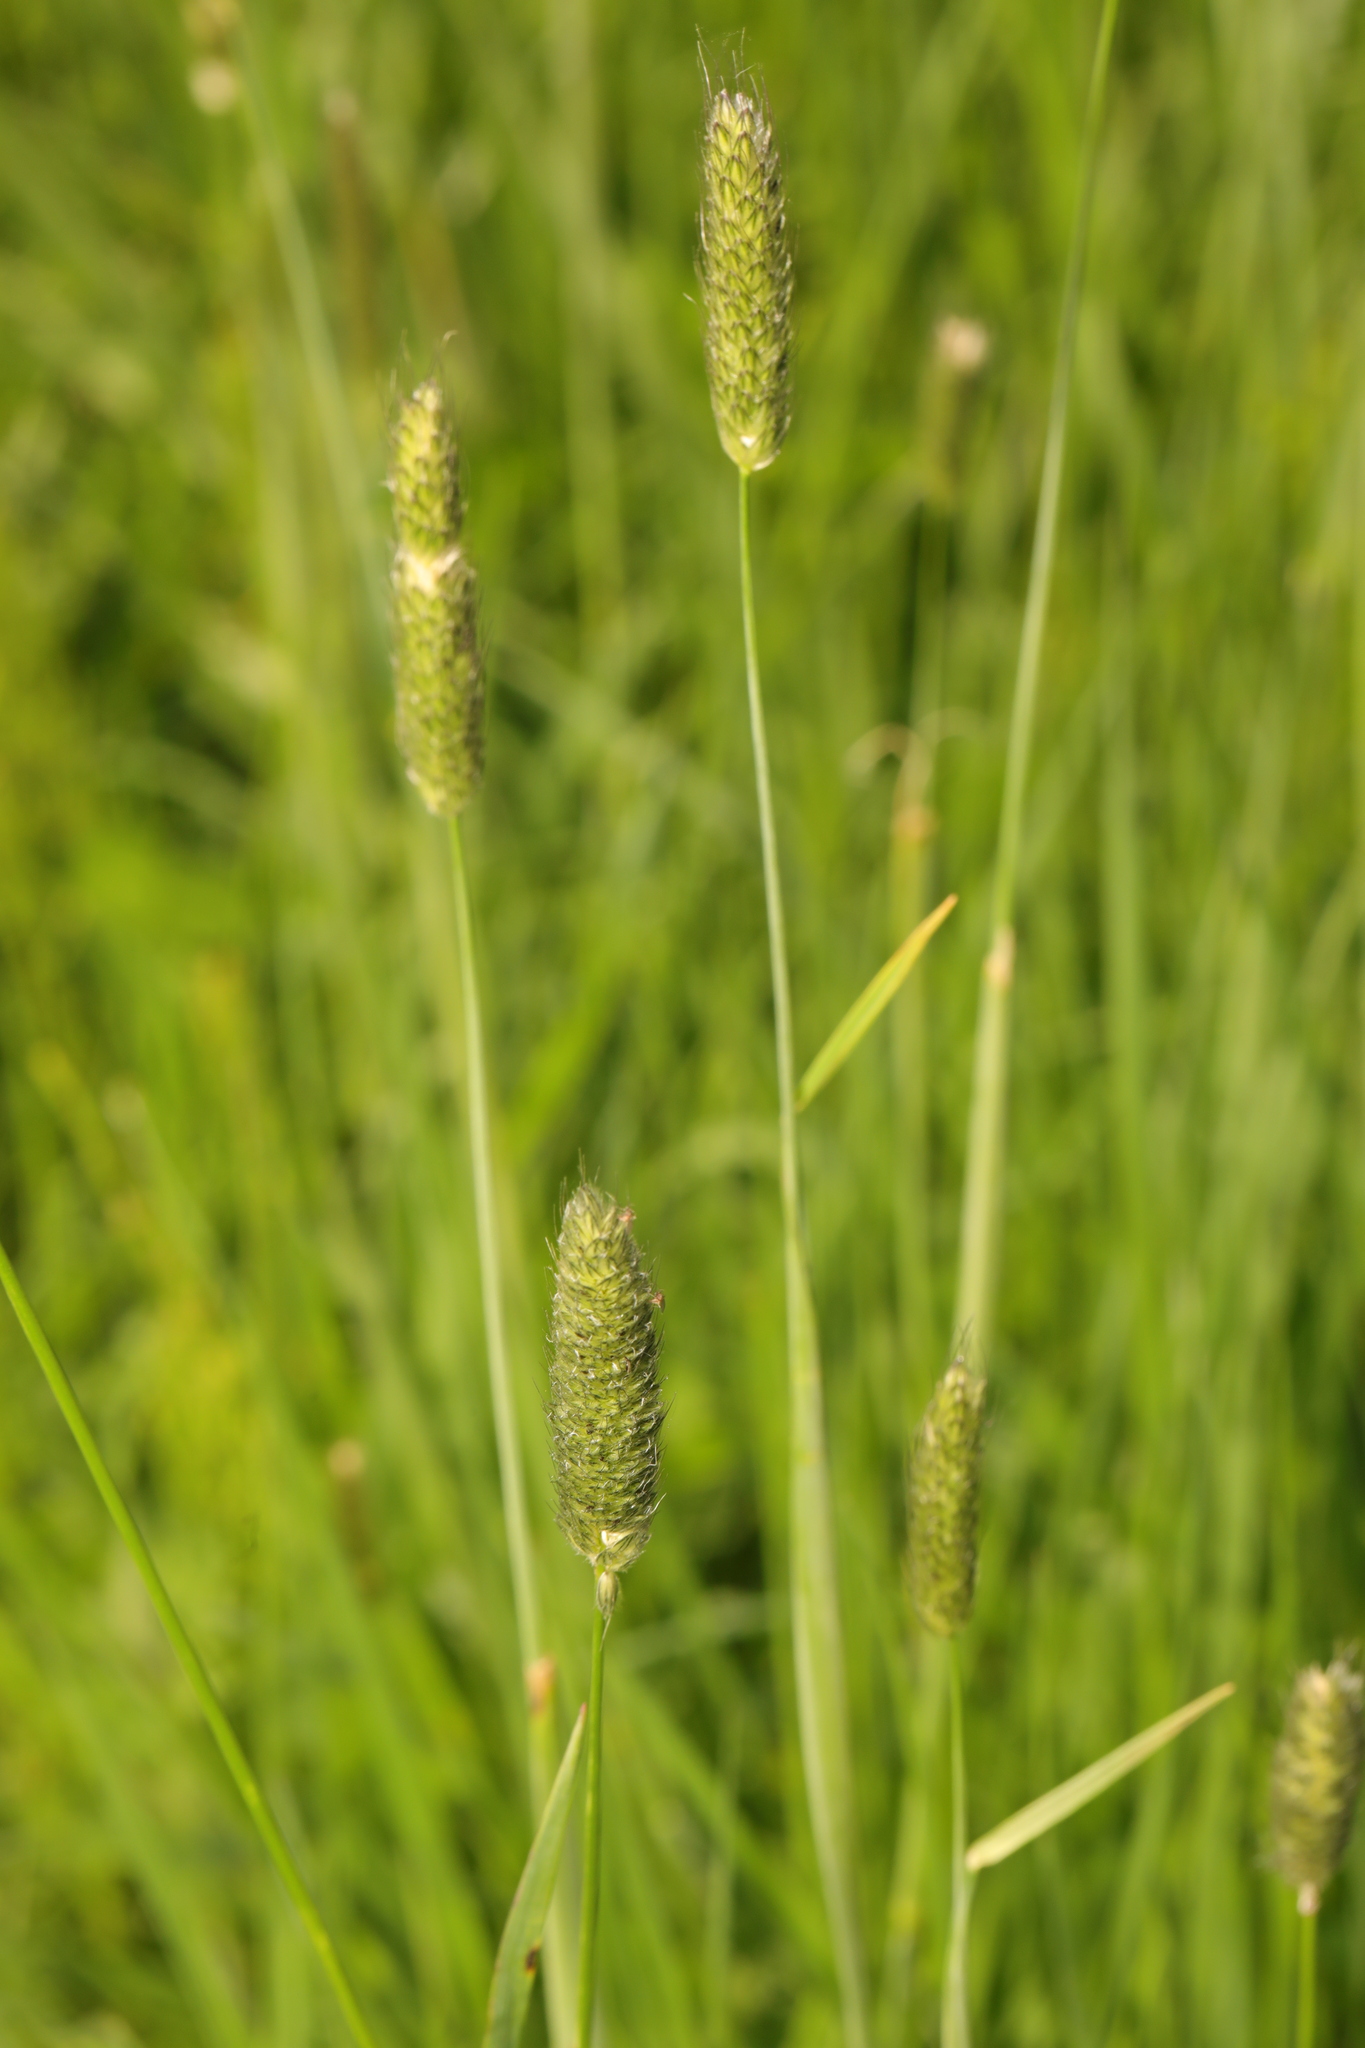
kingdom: Plantae
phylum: Tracheophyta
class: Liliopsida
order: Poales
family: Poaceae
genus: Alopecurus
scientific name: Alopecurus pratensis
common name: Meadow foxtail
